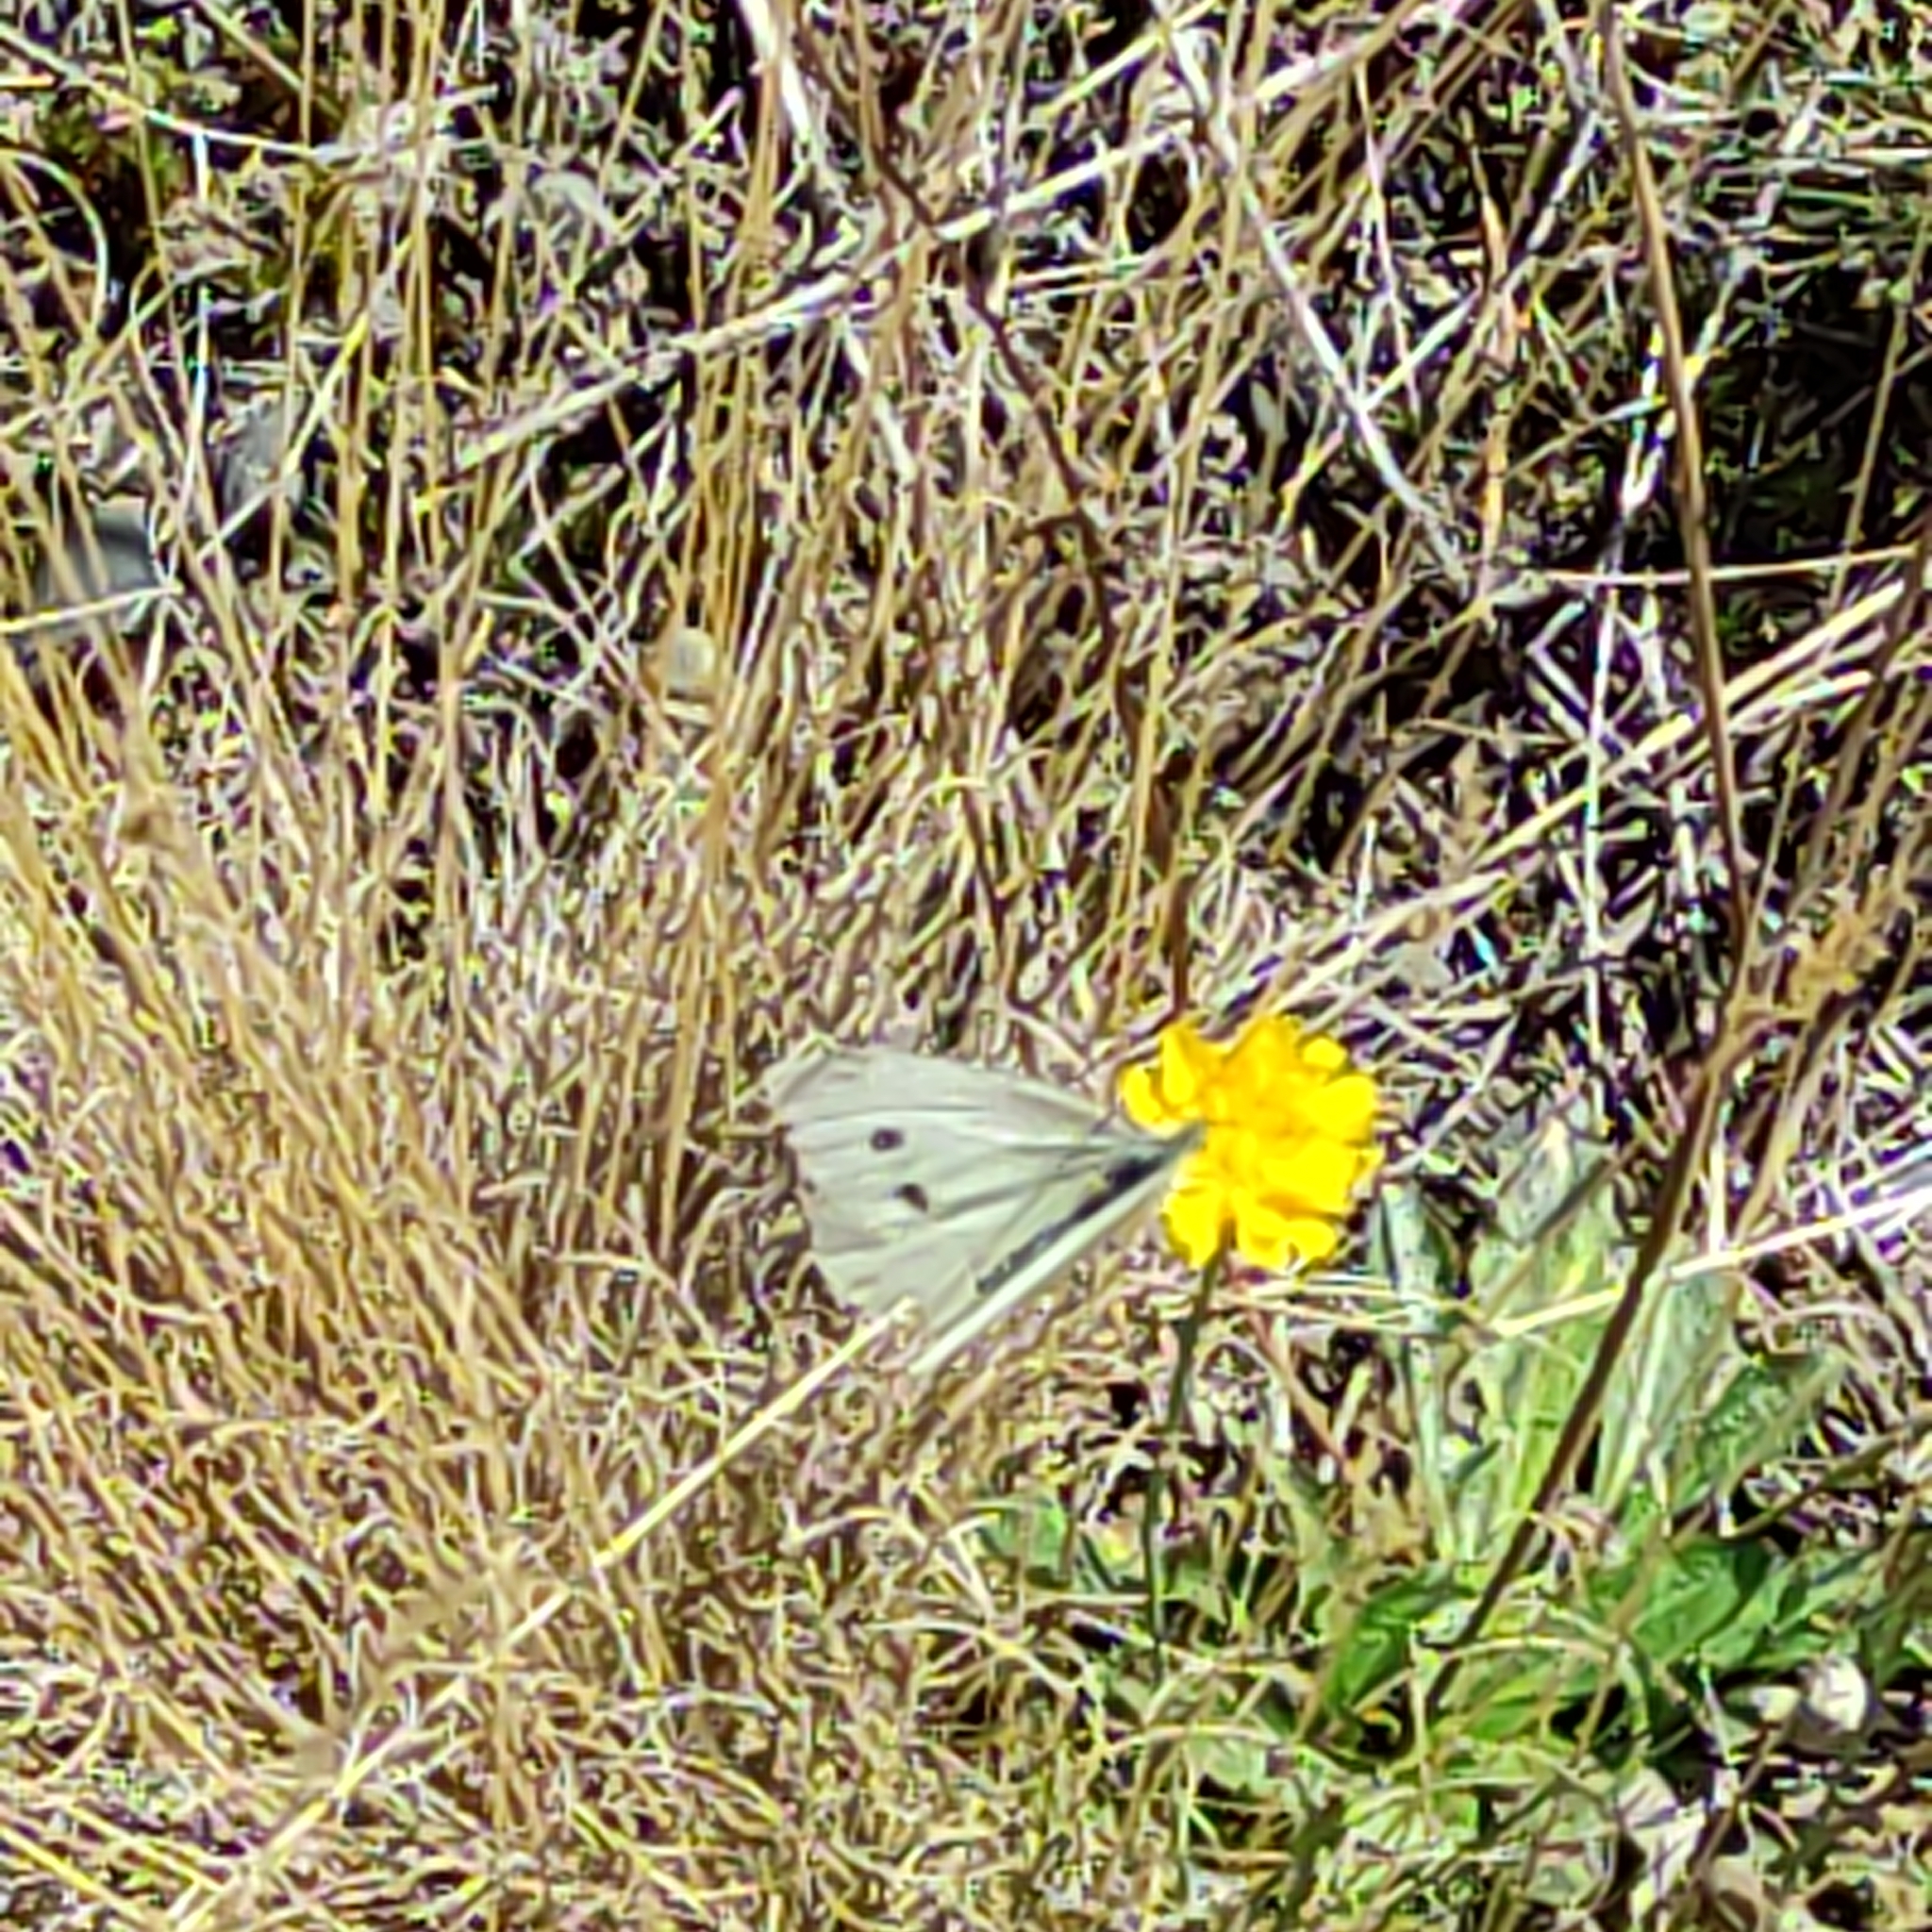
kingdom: Animalia
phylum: Arthropoda
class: Insecta
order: Lepidoptera
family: Pieridae
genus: Pieris
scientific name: Pieris rapae
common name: Small white
